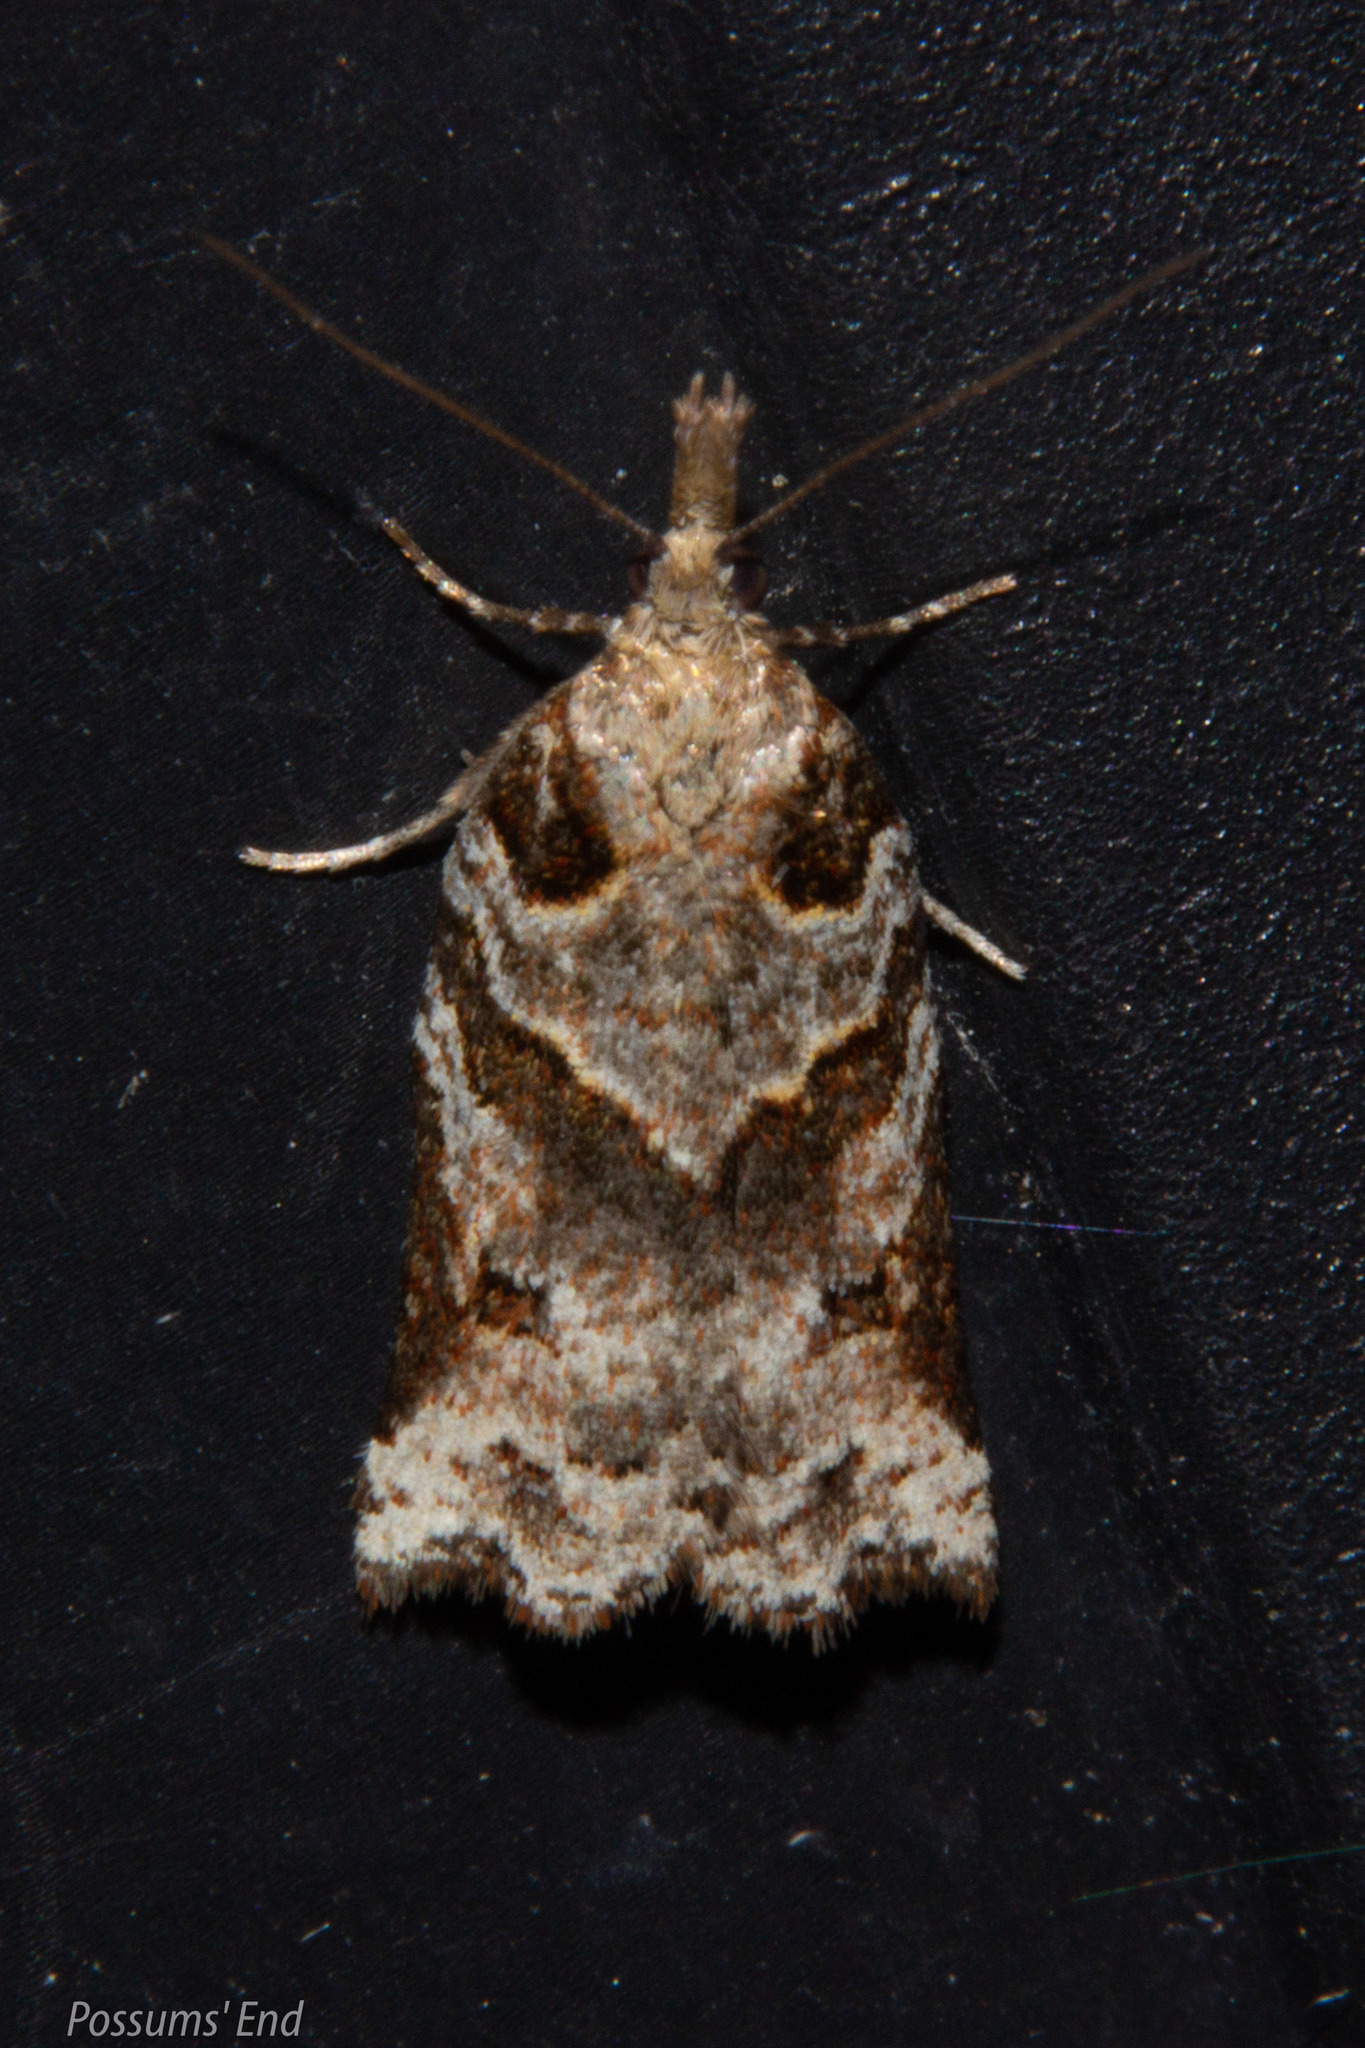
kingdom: Animalia
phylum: Arthropoda
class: Insecta
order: Lepidoptera
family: Tortricidae
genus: Harmologa
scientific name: Harmologa amplexana
